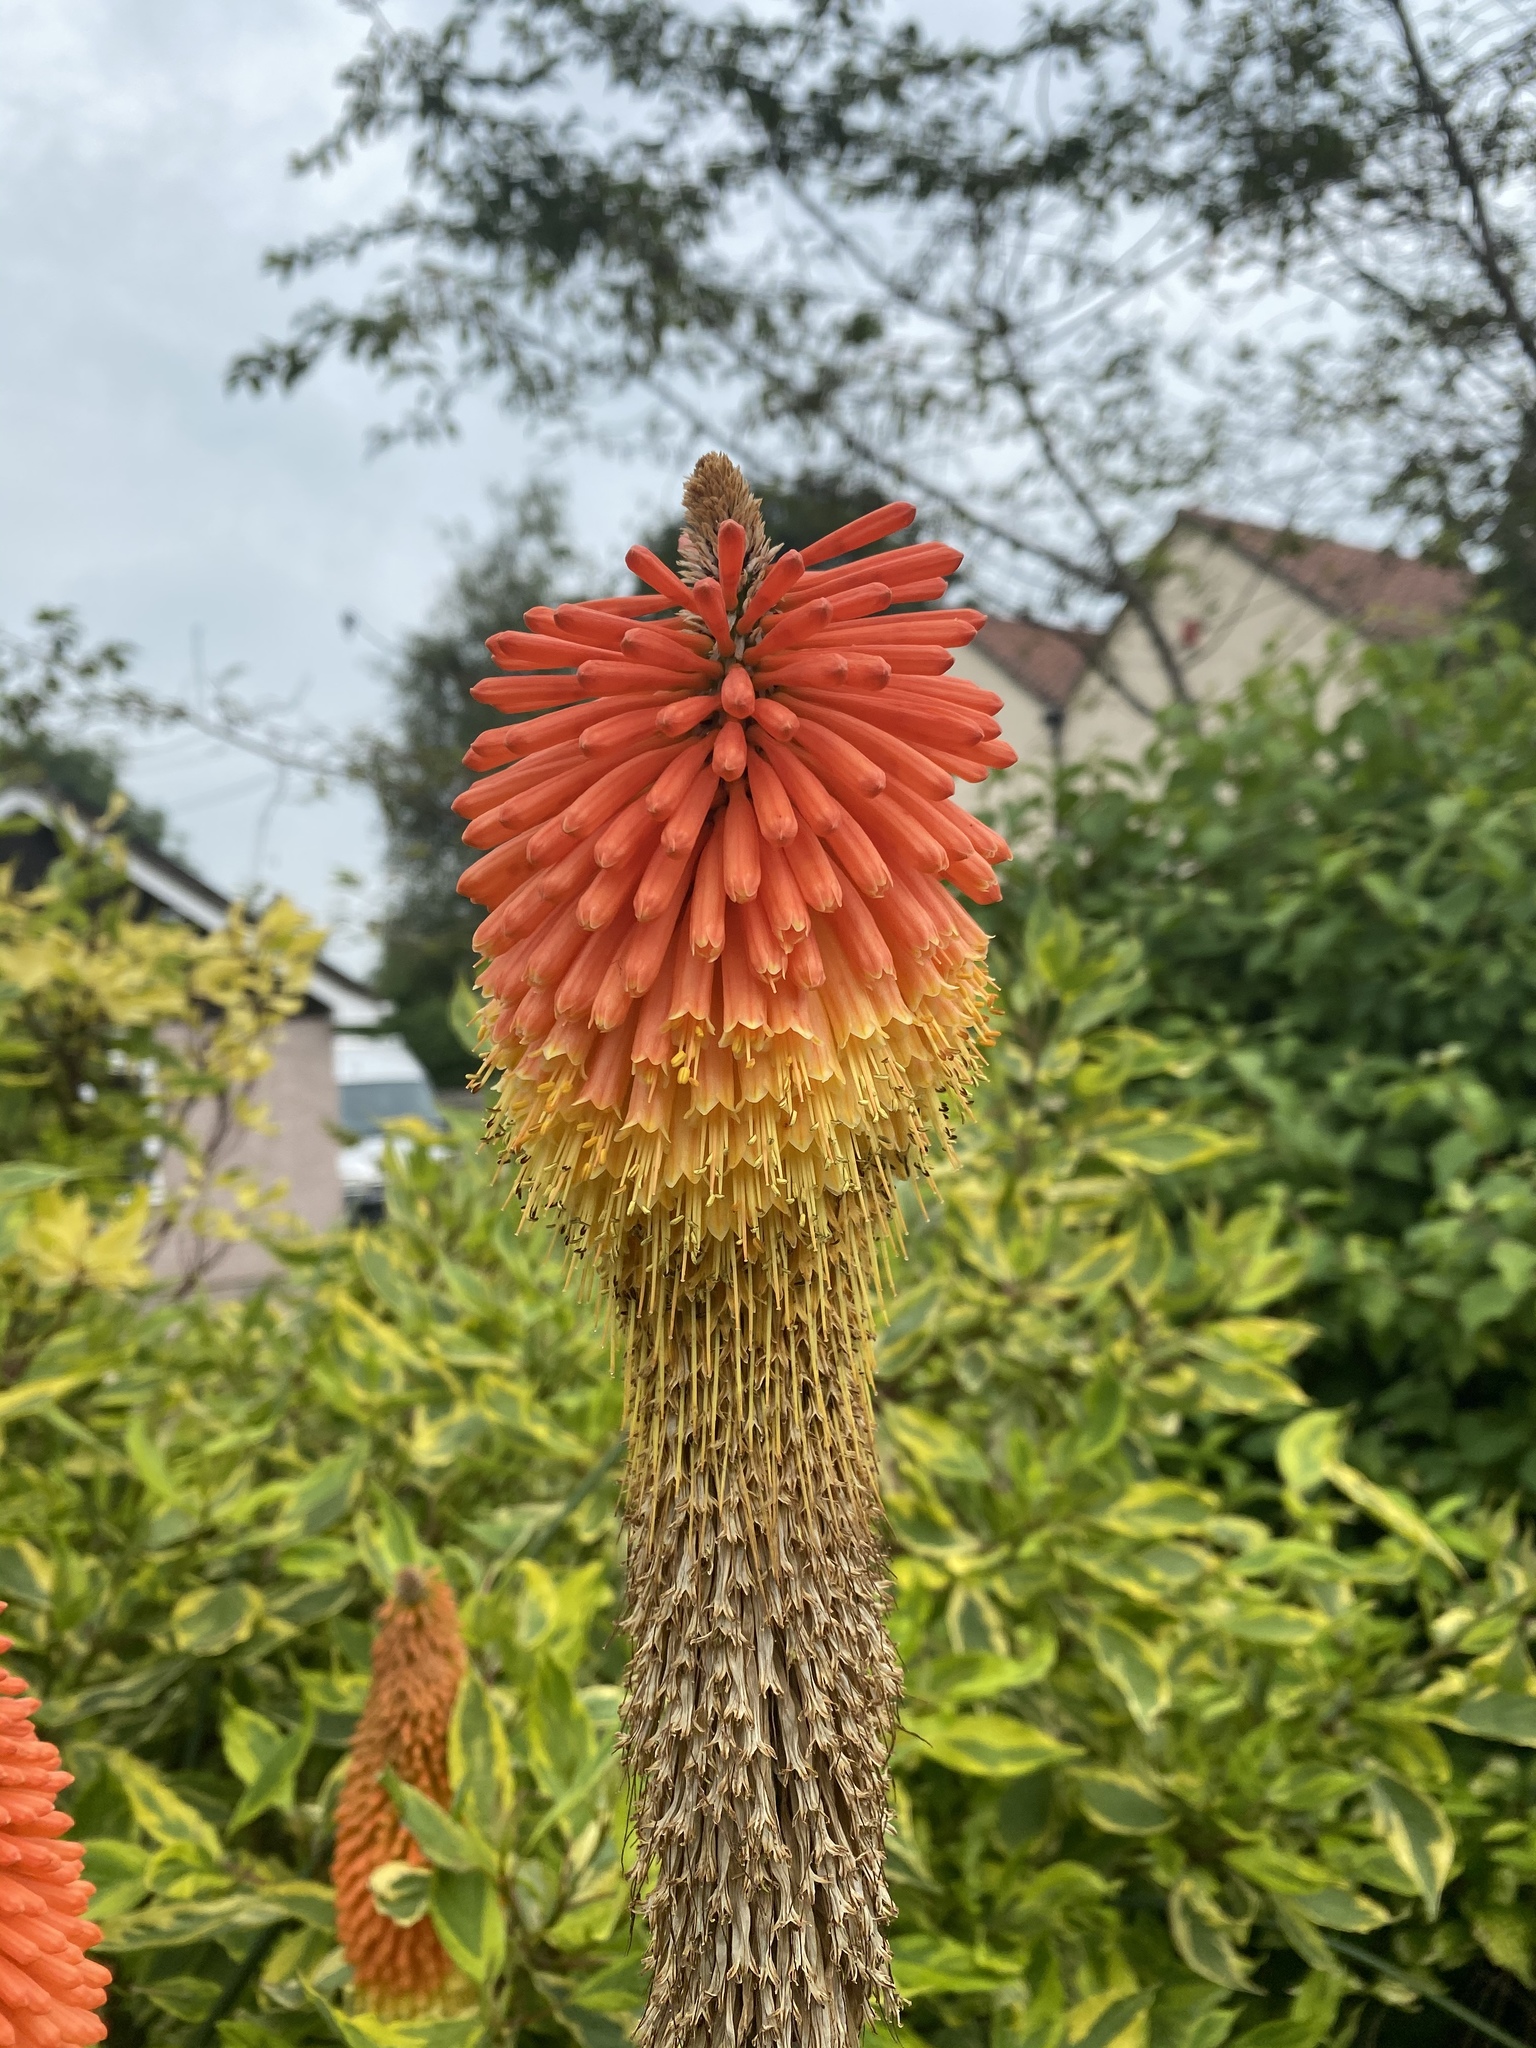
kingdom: Plantae
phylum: Tracheophyta
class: Liliopsida
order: Asparagales
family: Asphodelaceae
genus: Kniphofia
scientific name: Kniphofia uvaria
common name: Red-hot-poker
